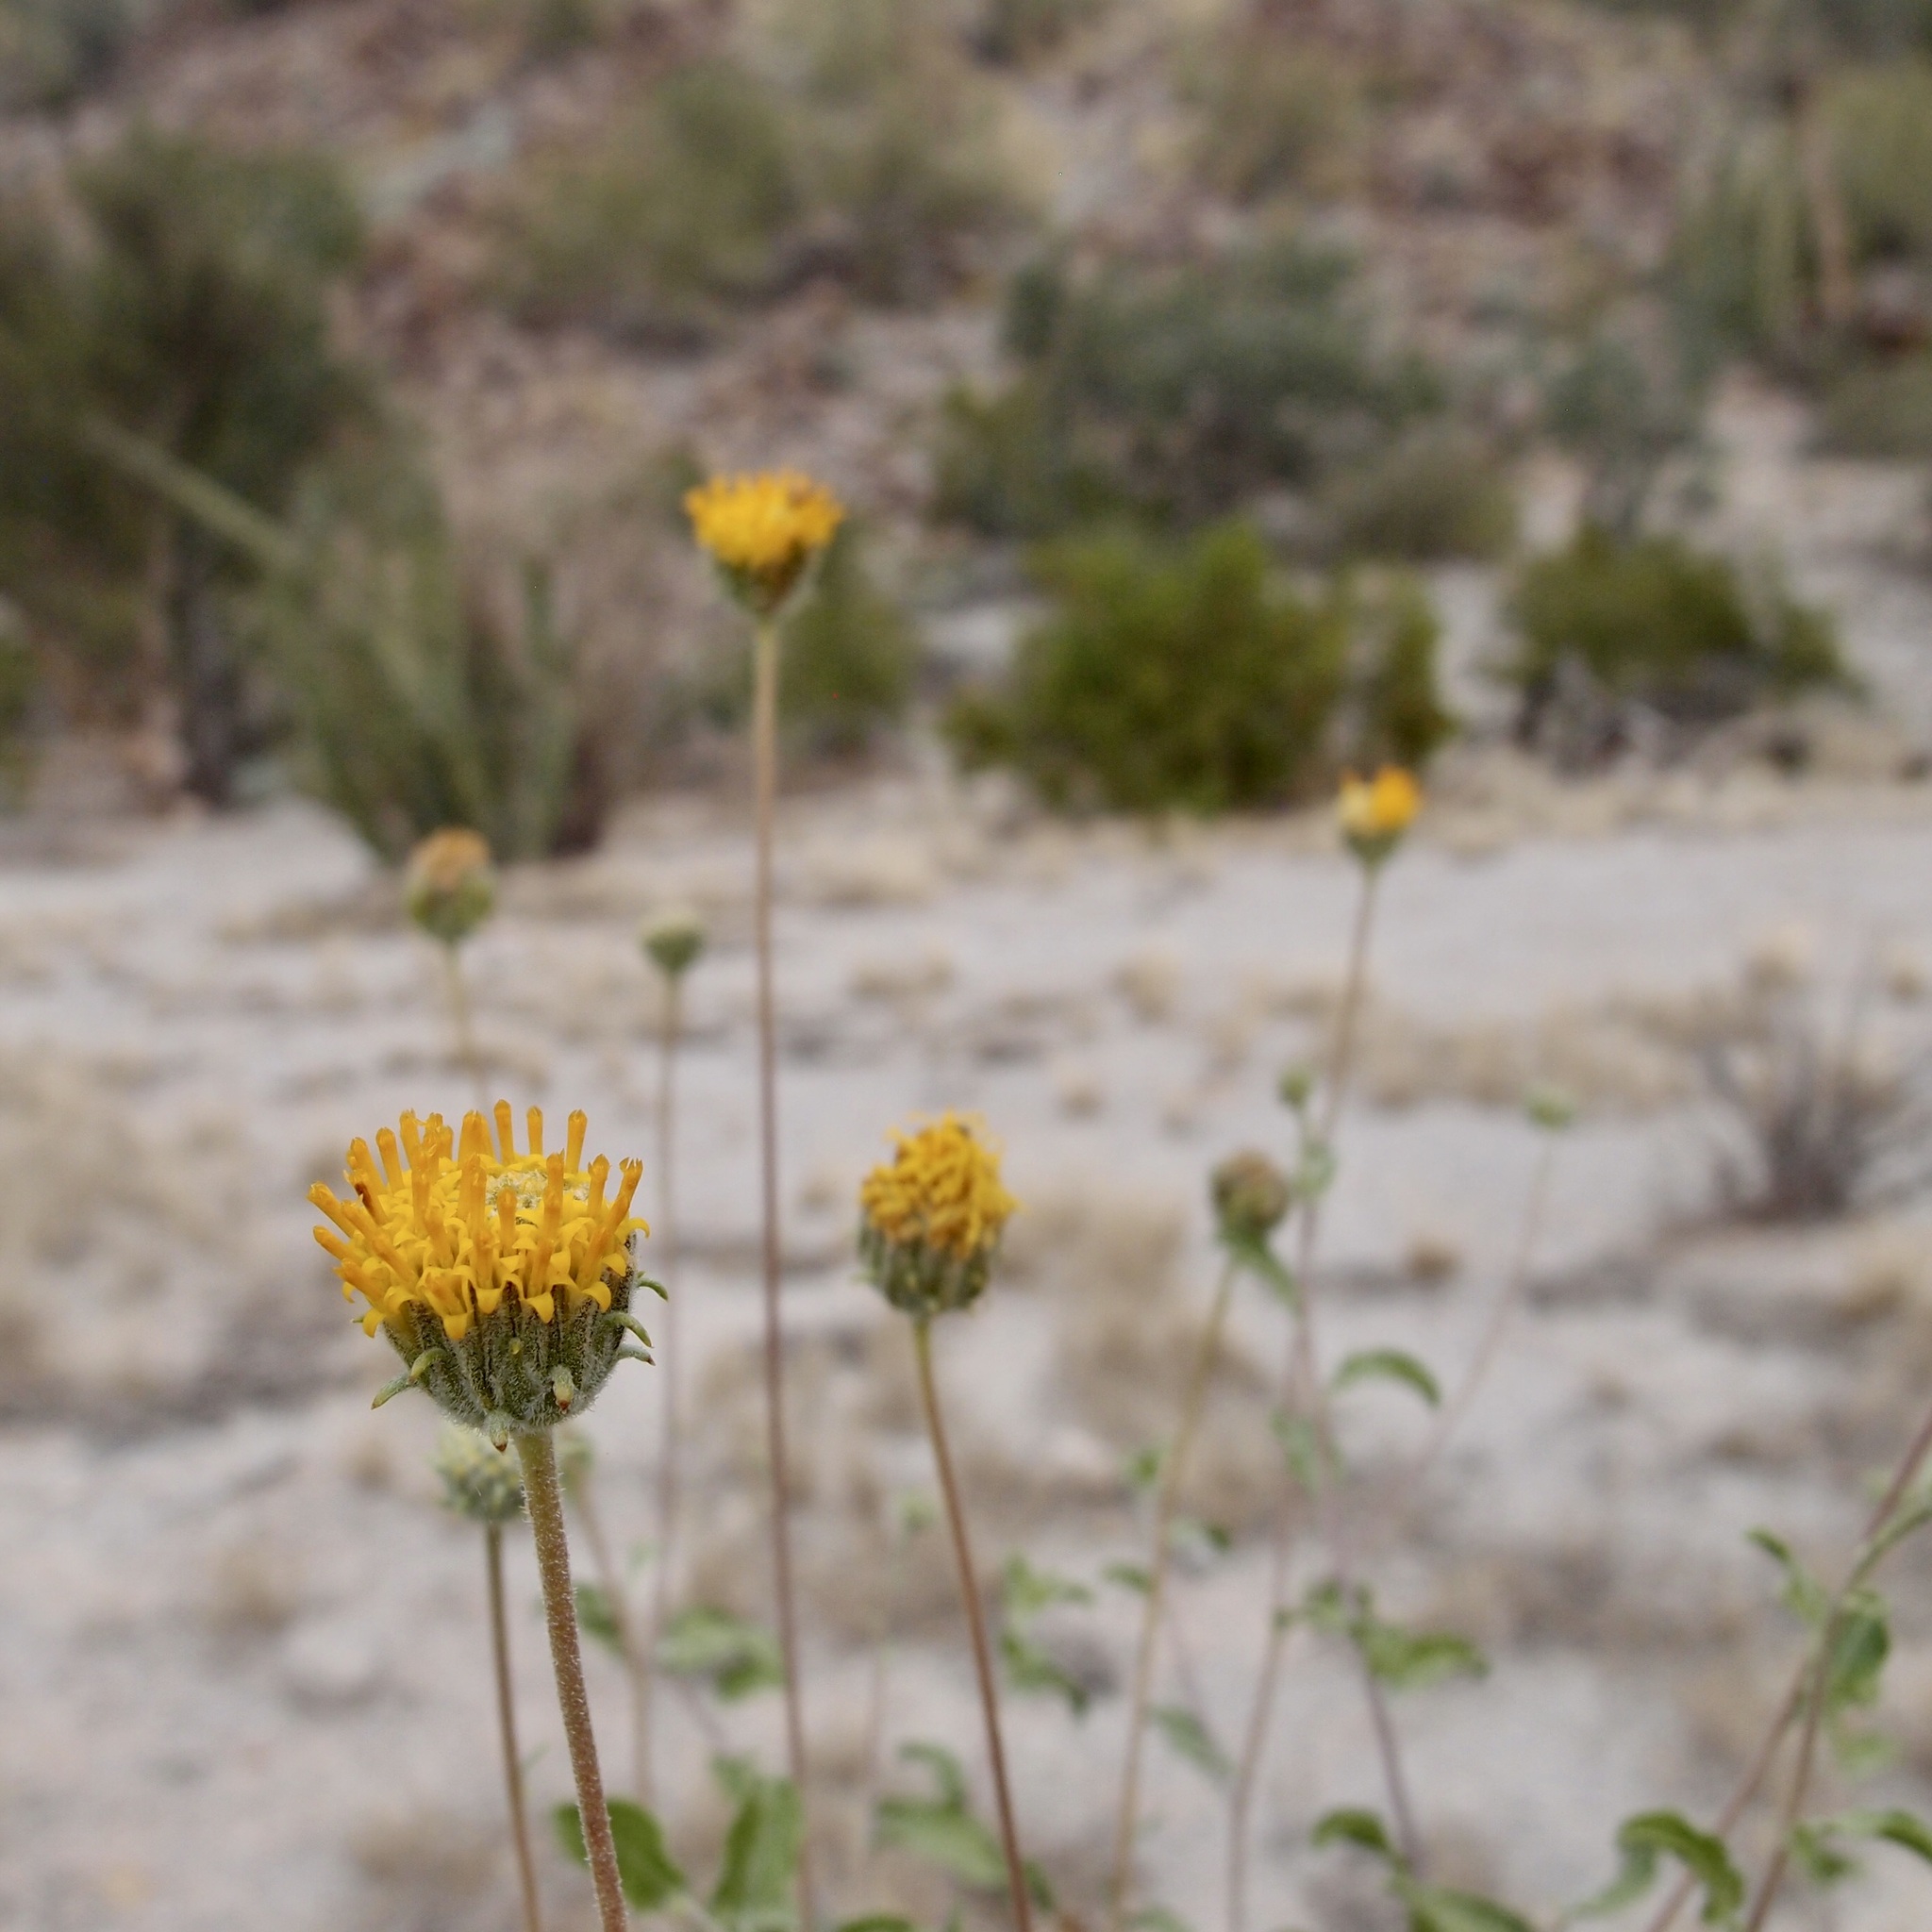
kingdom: Plantae
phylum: Tracheophyta
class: Magnoliopsida
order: Asterales
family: Asteraceae
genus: Encelia
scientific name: Encelia frutescens
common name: Bush encelia
